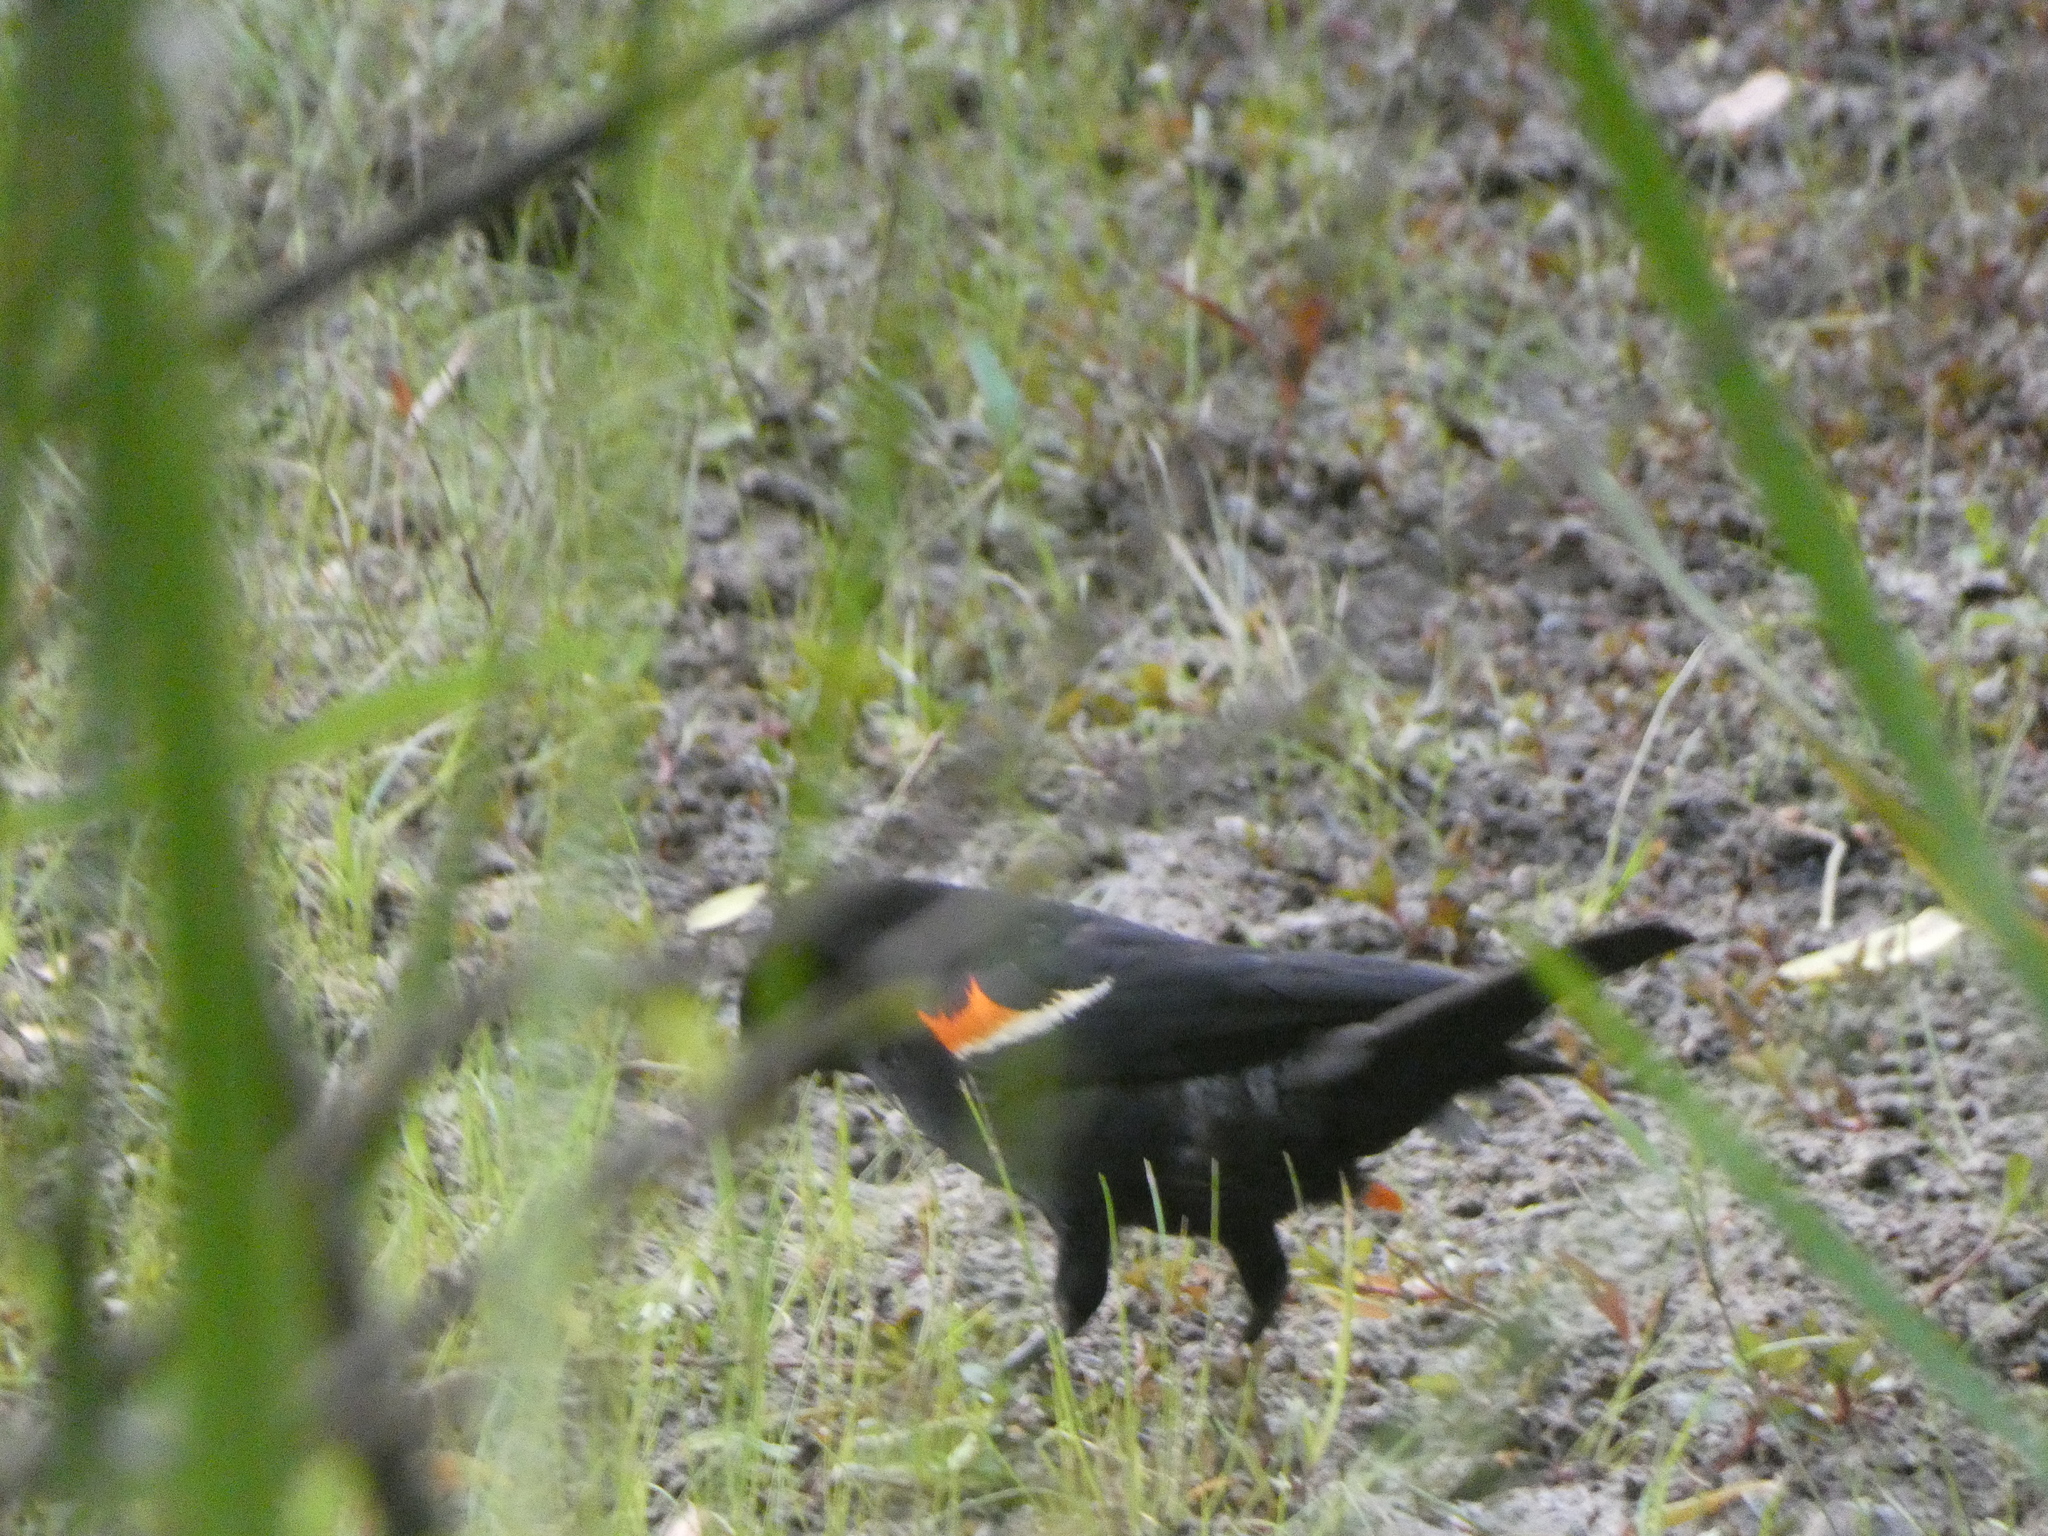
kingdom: Animalia
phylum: Chordata
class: Aves
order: Passeriformes
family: Icteridae
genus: Agelaius
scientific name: Agelaius phoeniceus
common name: Red-winged blackbird
